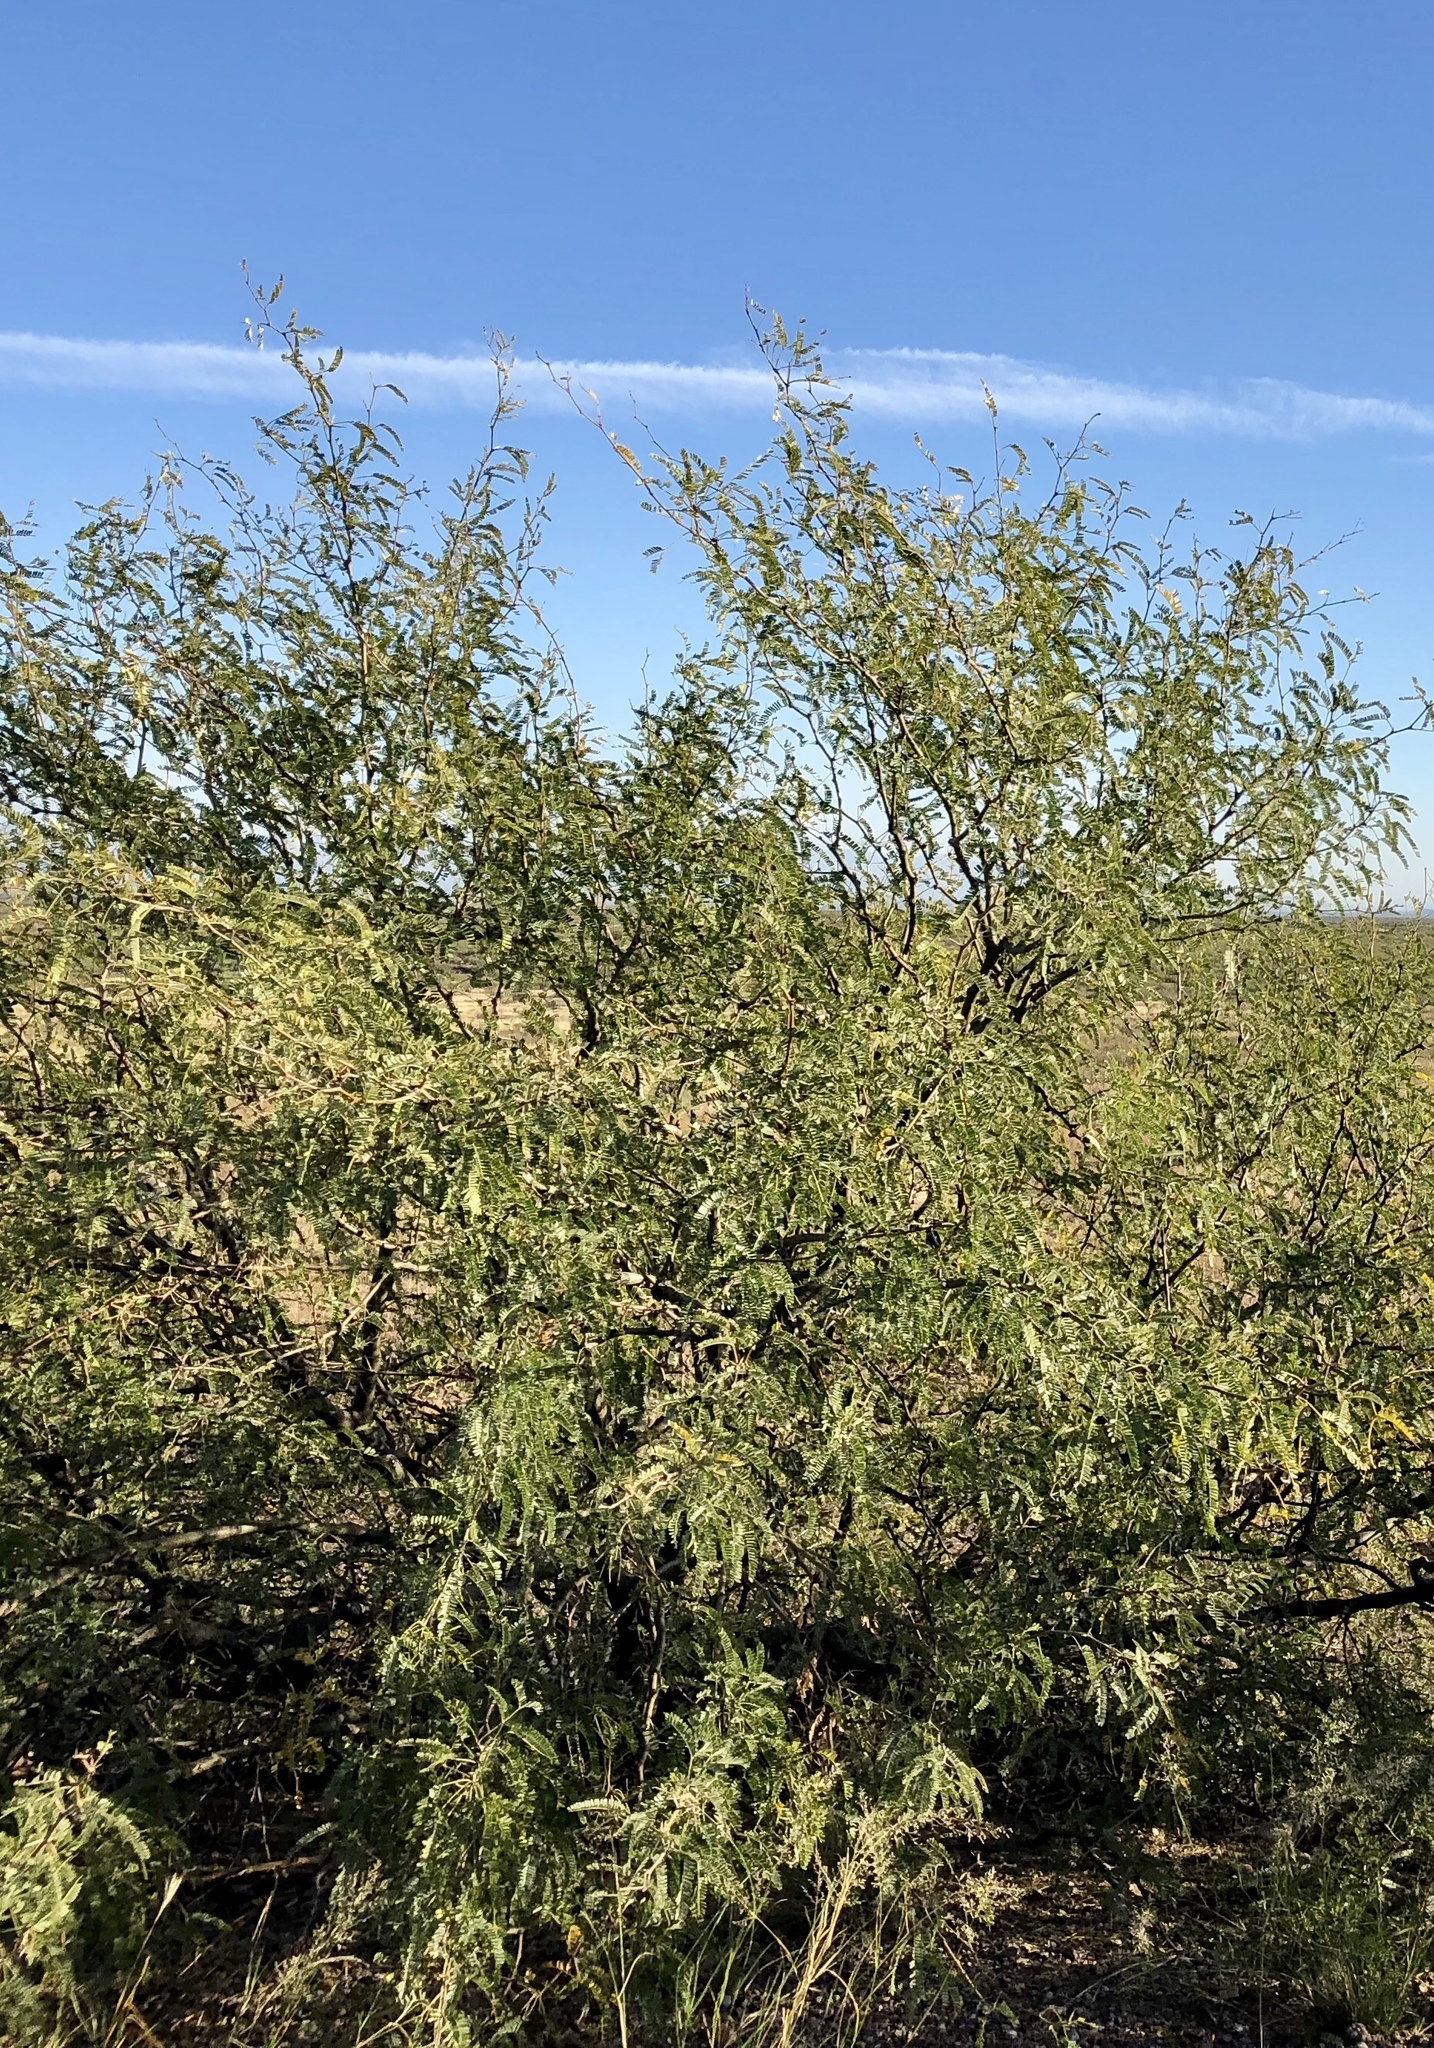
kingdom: Plantae
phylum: Tracheophyta
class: Magnoliopsida
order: Fabales
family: Fabaceae
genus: Prosopis
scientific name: Prosopis glandulosa
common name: Honey mesquite
